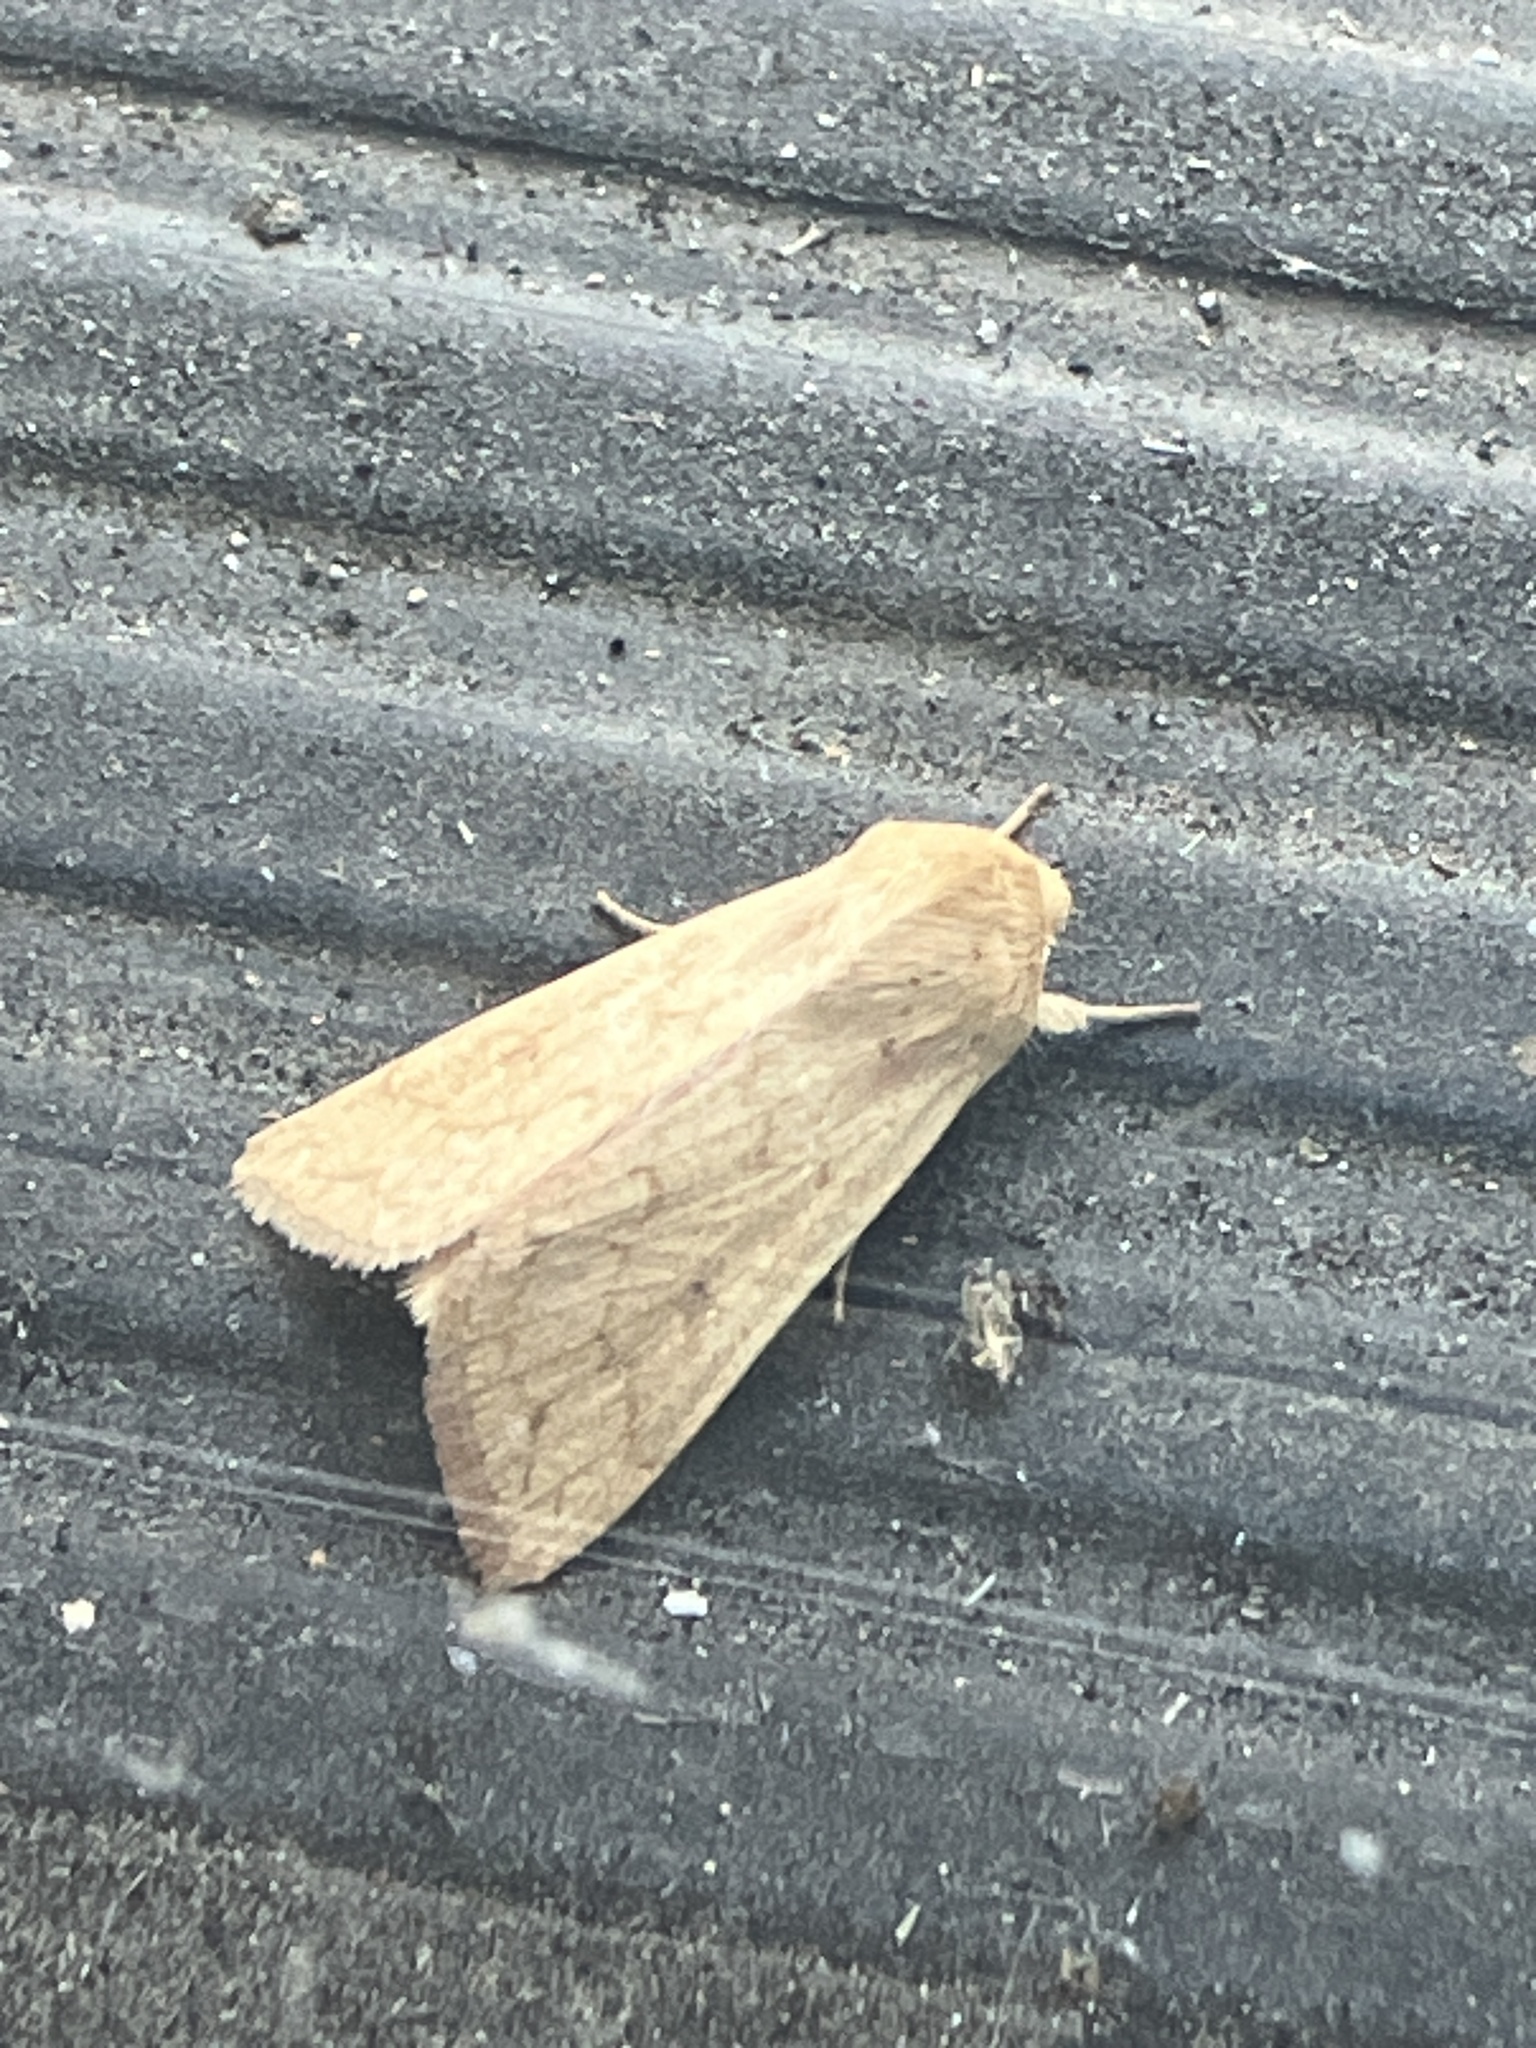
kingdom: Animalia
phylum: Arthropoda
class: Insecta
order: Lepidoptera
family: Noctuidae
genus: Mythimna
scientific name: Mythimna vitellina
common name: Delicate
